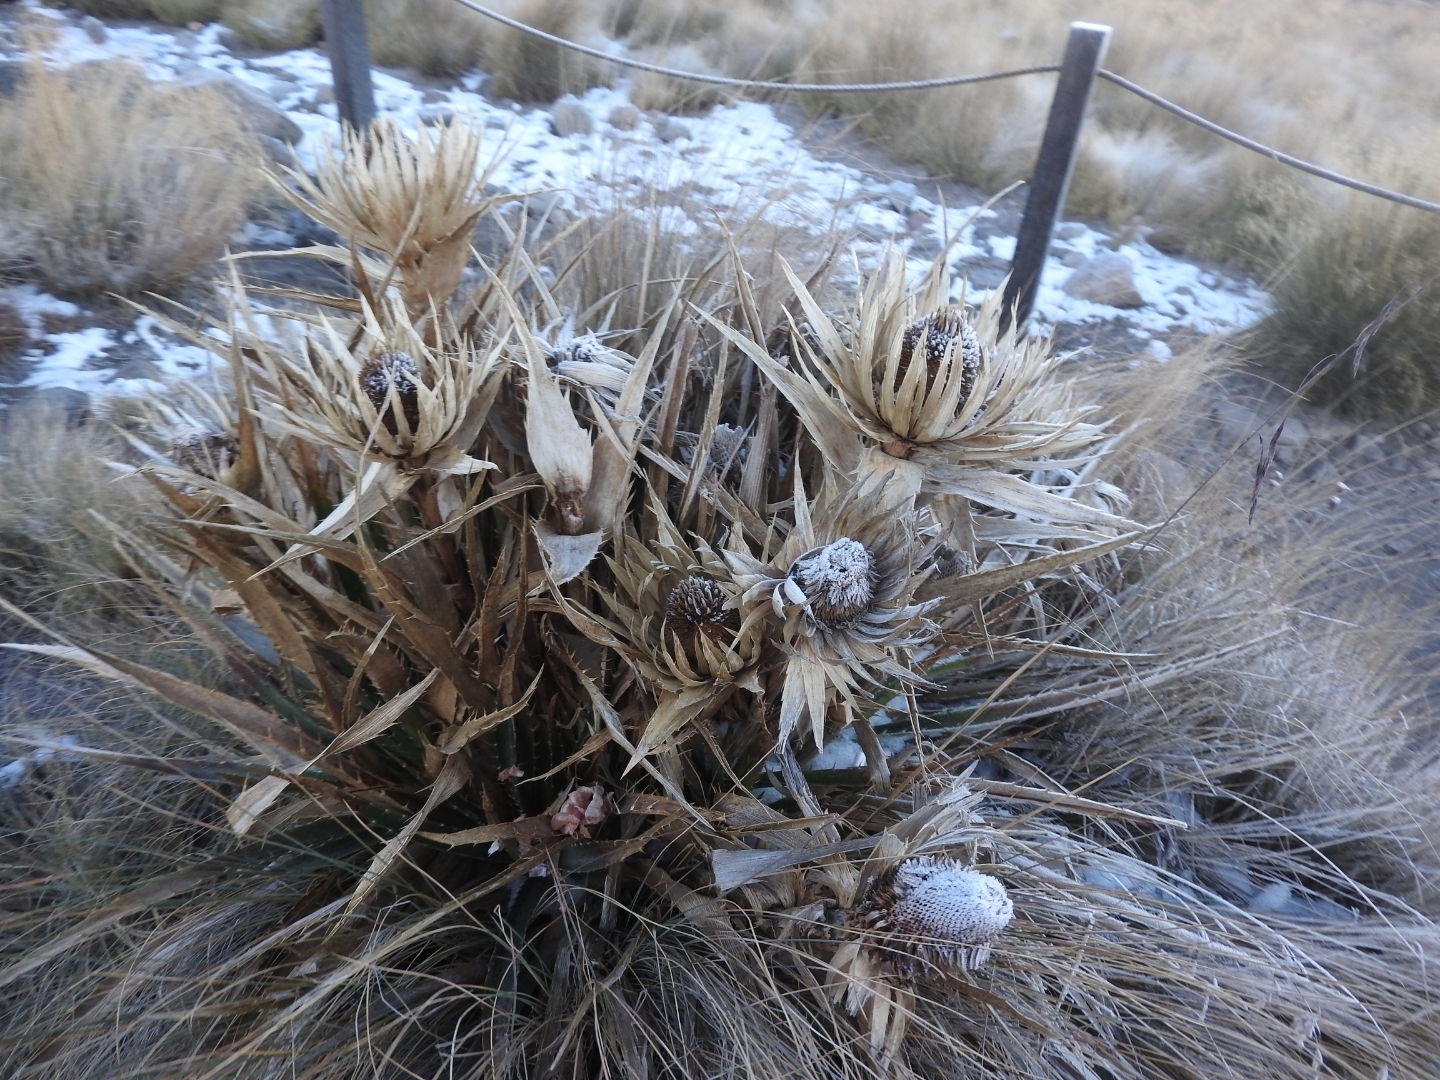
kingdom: Plantae
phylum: Tracheophyta
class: Magnoliopsida
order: Apiales
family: Apiaceae
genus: Eryngium
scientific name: Eryngium proteiflorum
